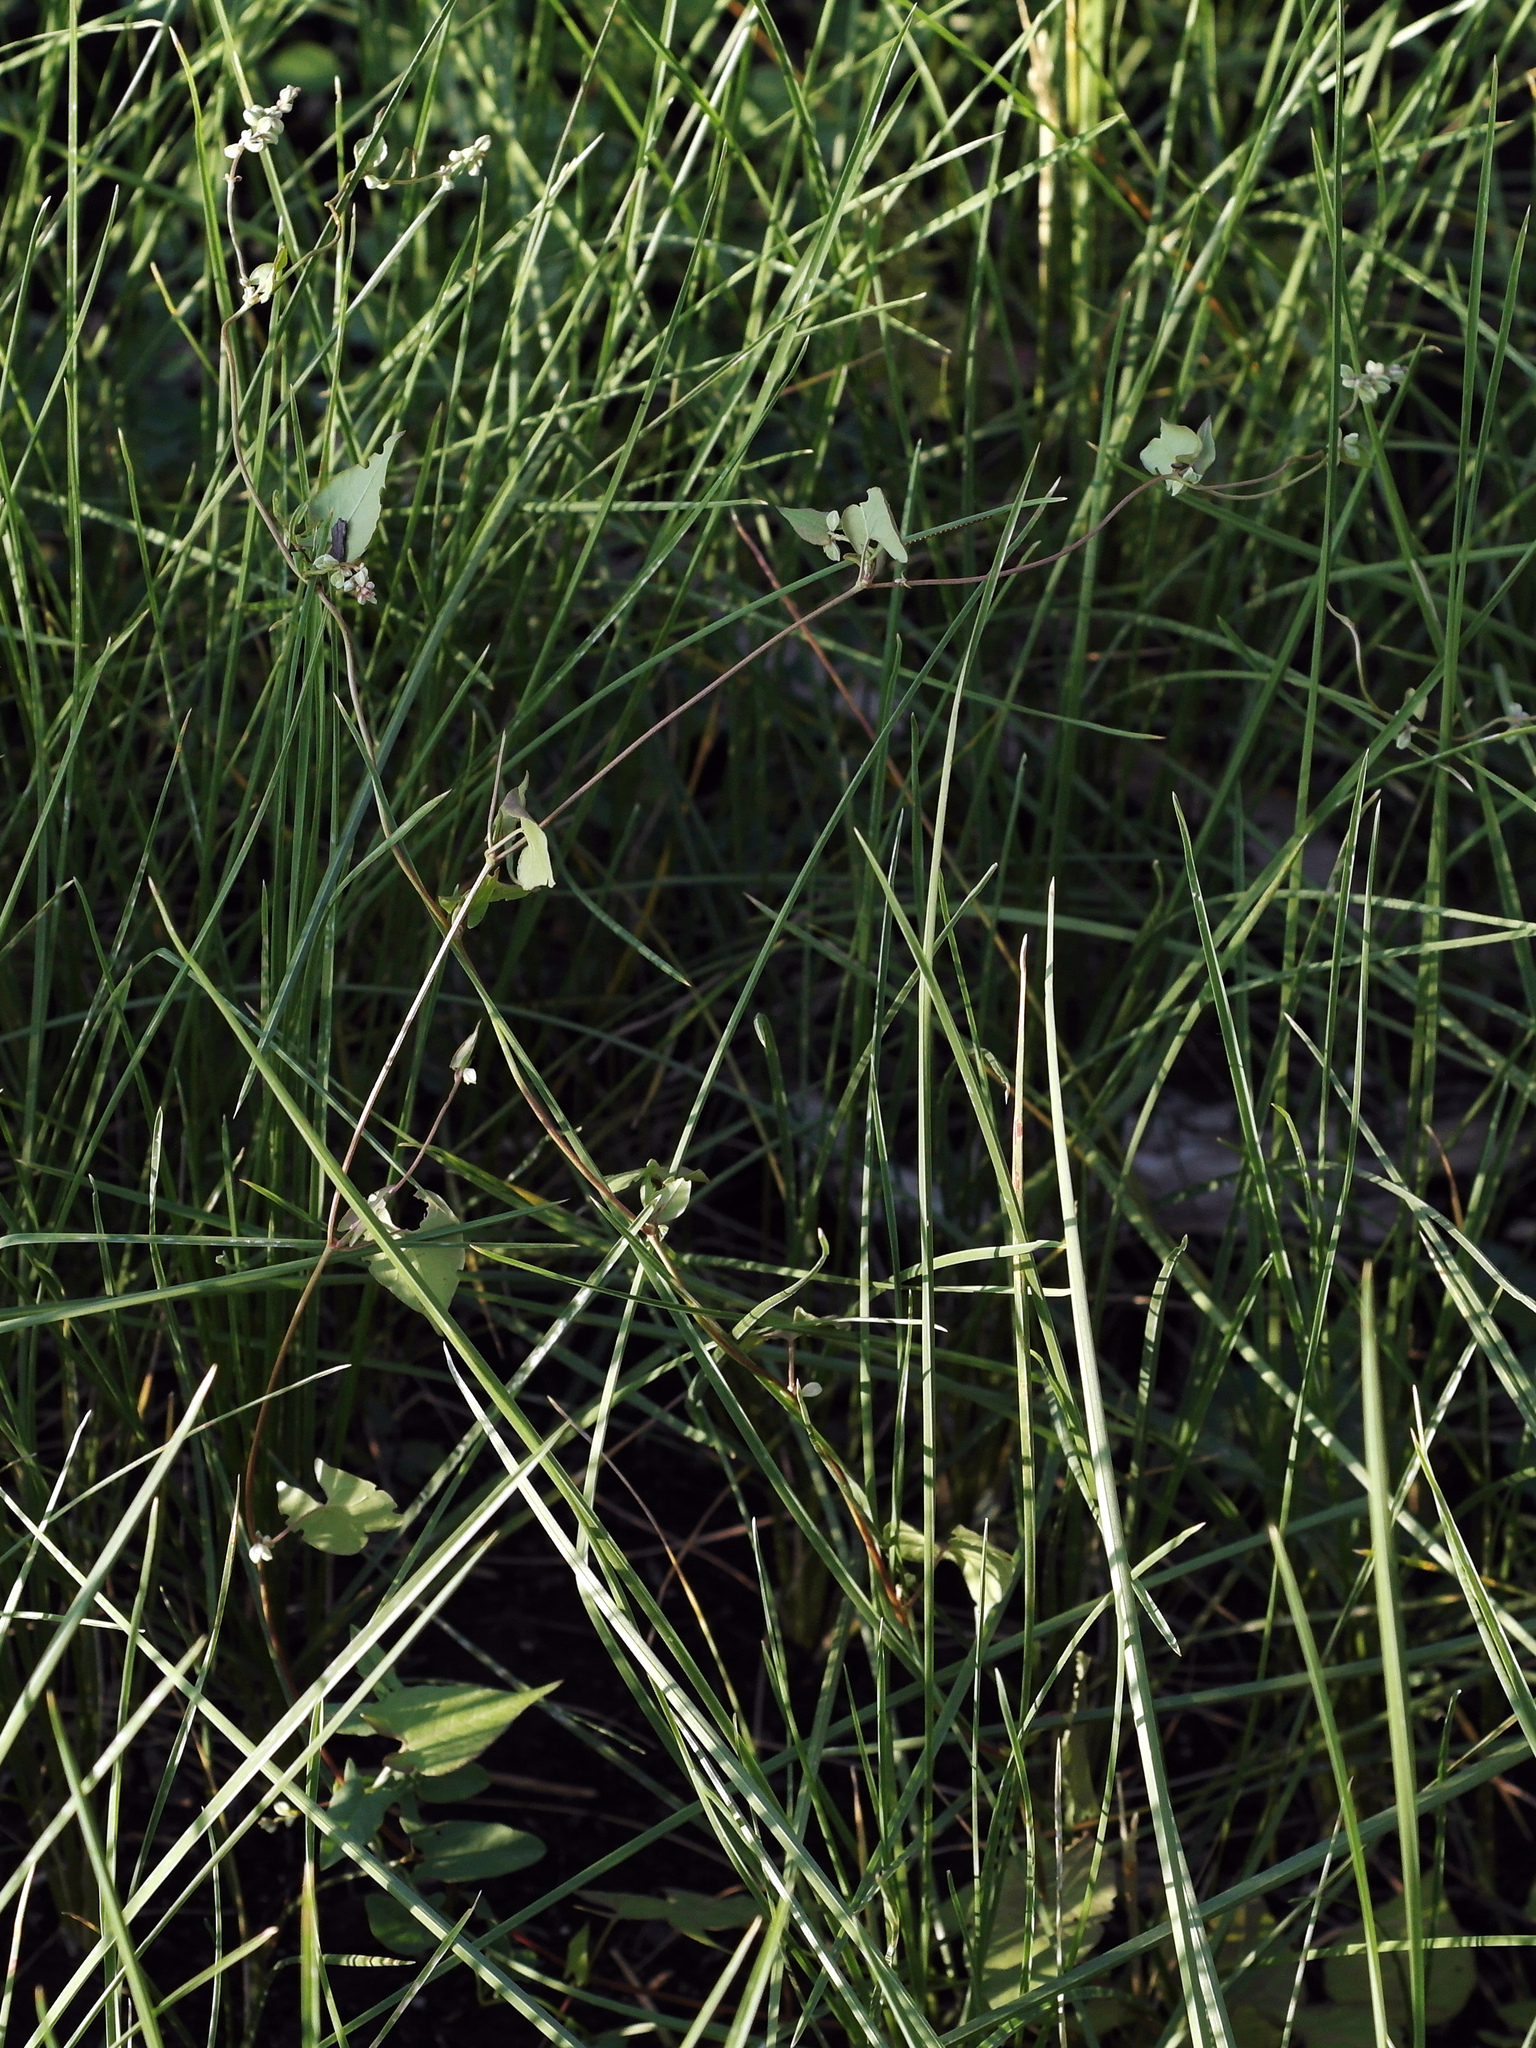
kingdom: Plantae
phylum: Tracheophyta
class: Magnoliopsida
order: Caryophyllales
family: Polygonaceae
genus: Fallopia
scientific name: Fallopia convolvulus
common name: Black bindweed
